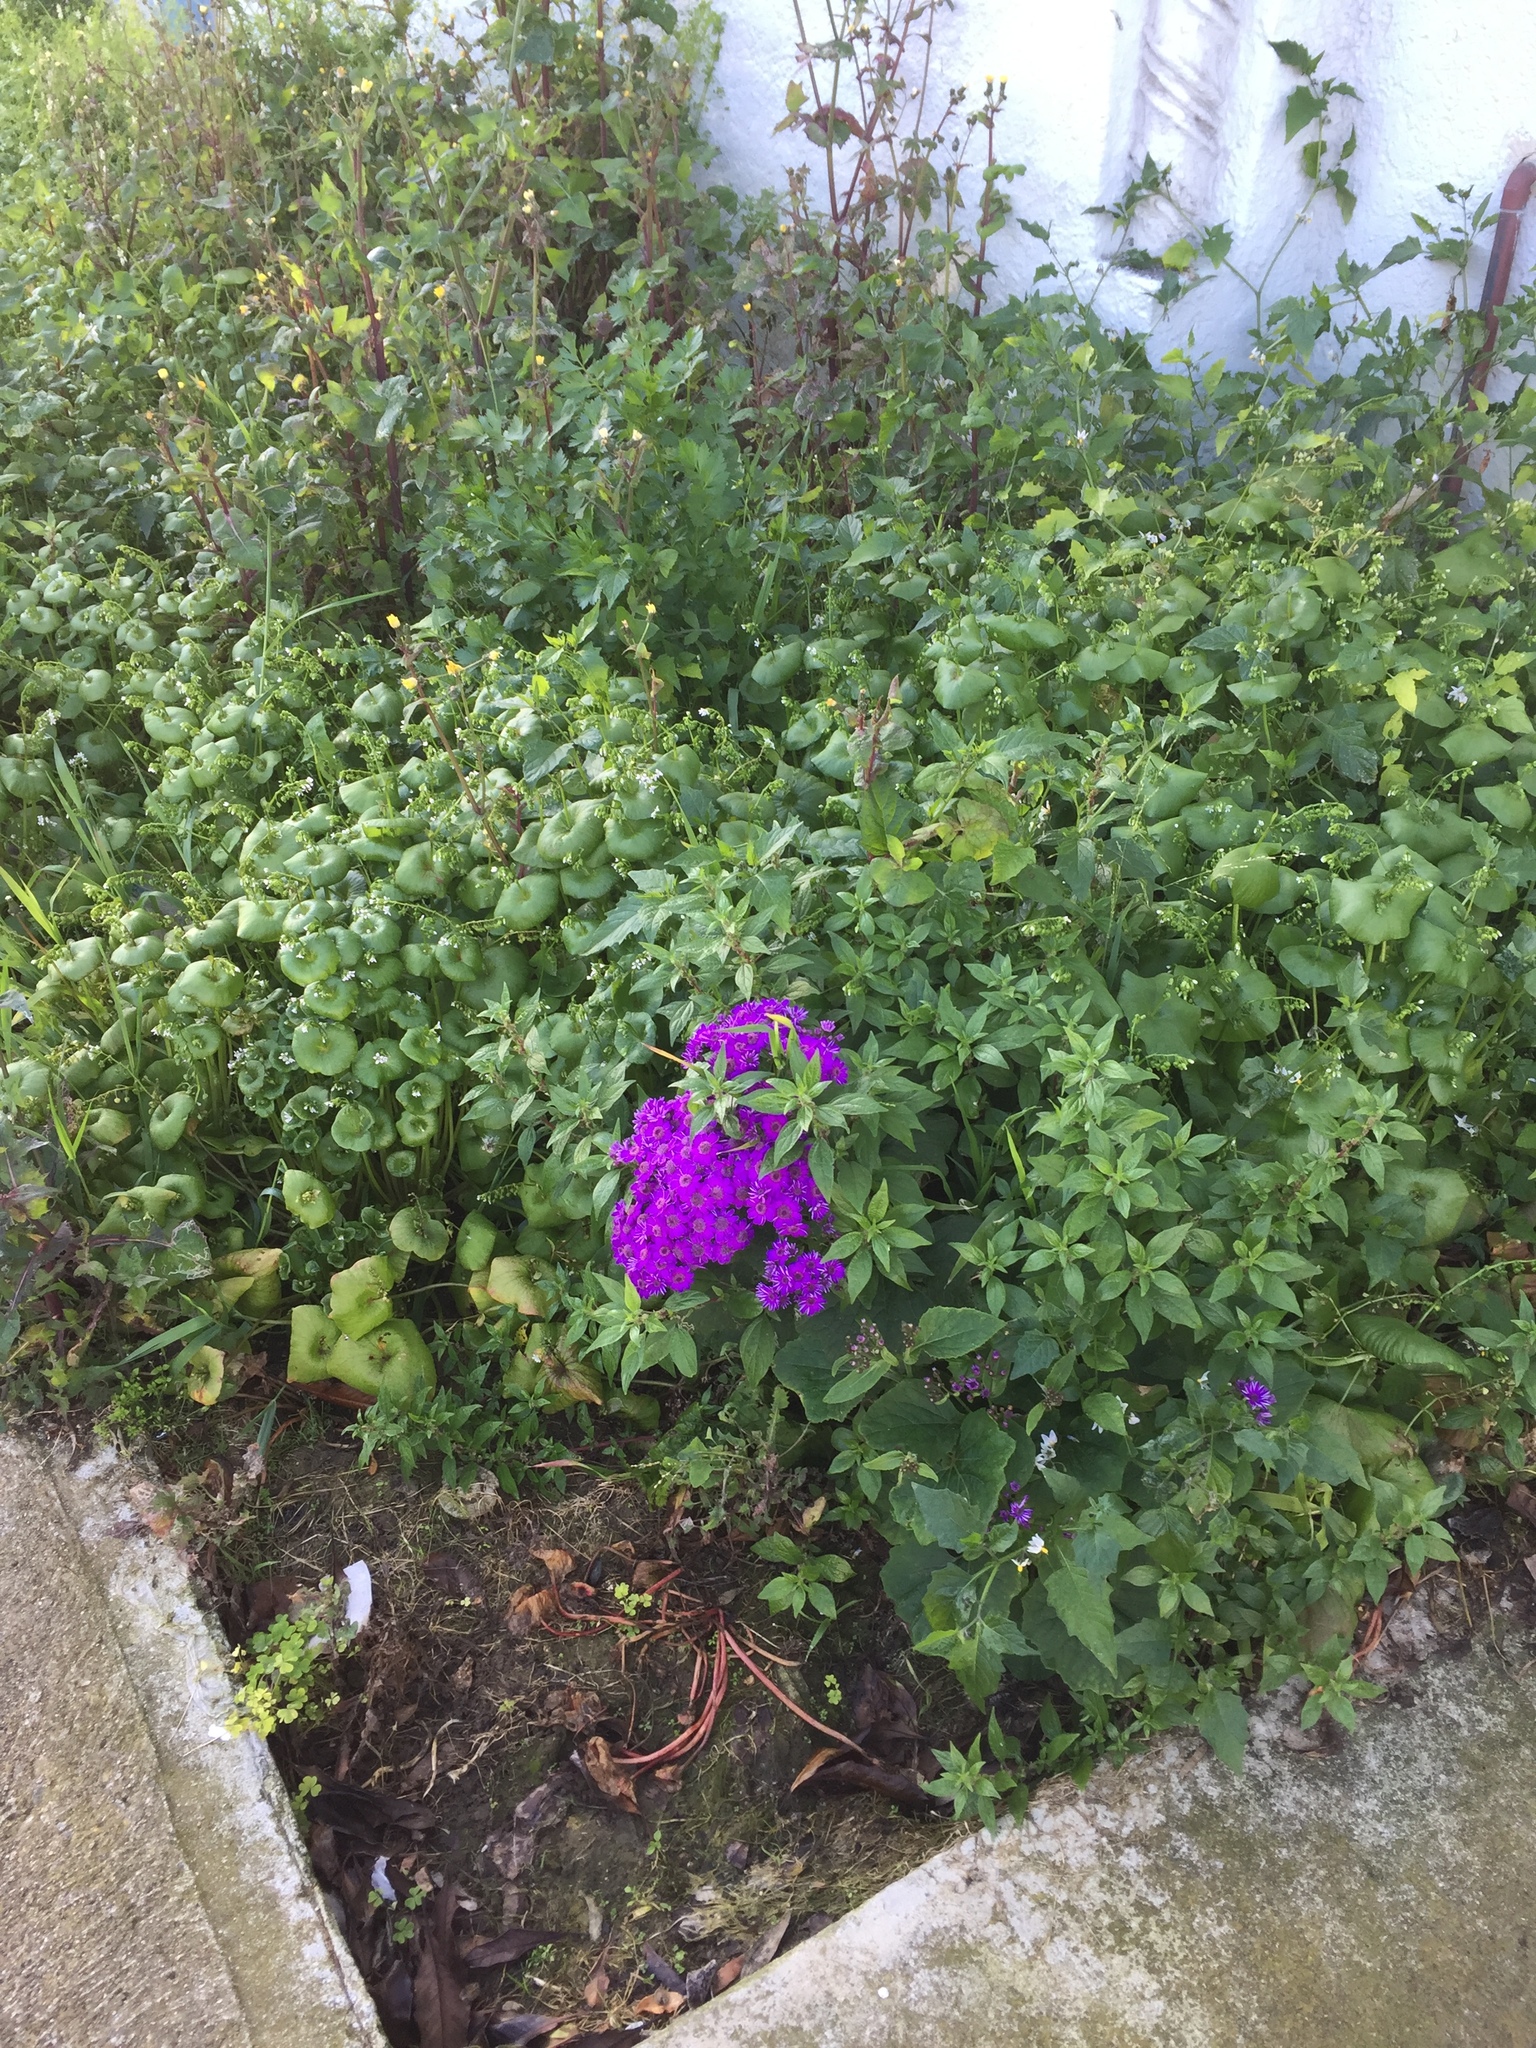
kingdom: Plantae
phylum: Tracheophyta
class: Magnoliopsida
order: Asterales
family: Asteraceae
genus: Pericallis
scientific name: Pericallis hybrida
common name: Cineraria
